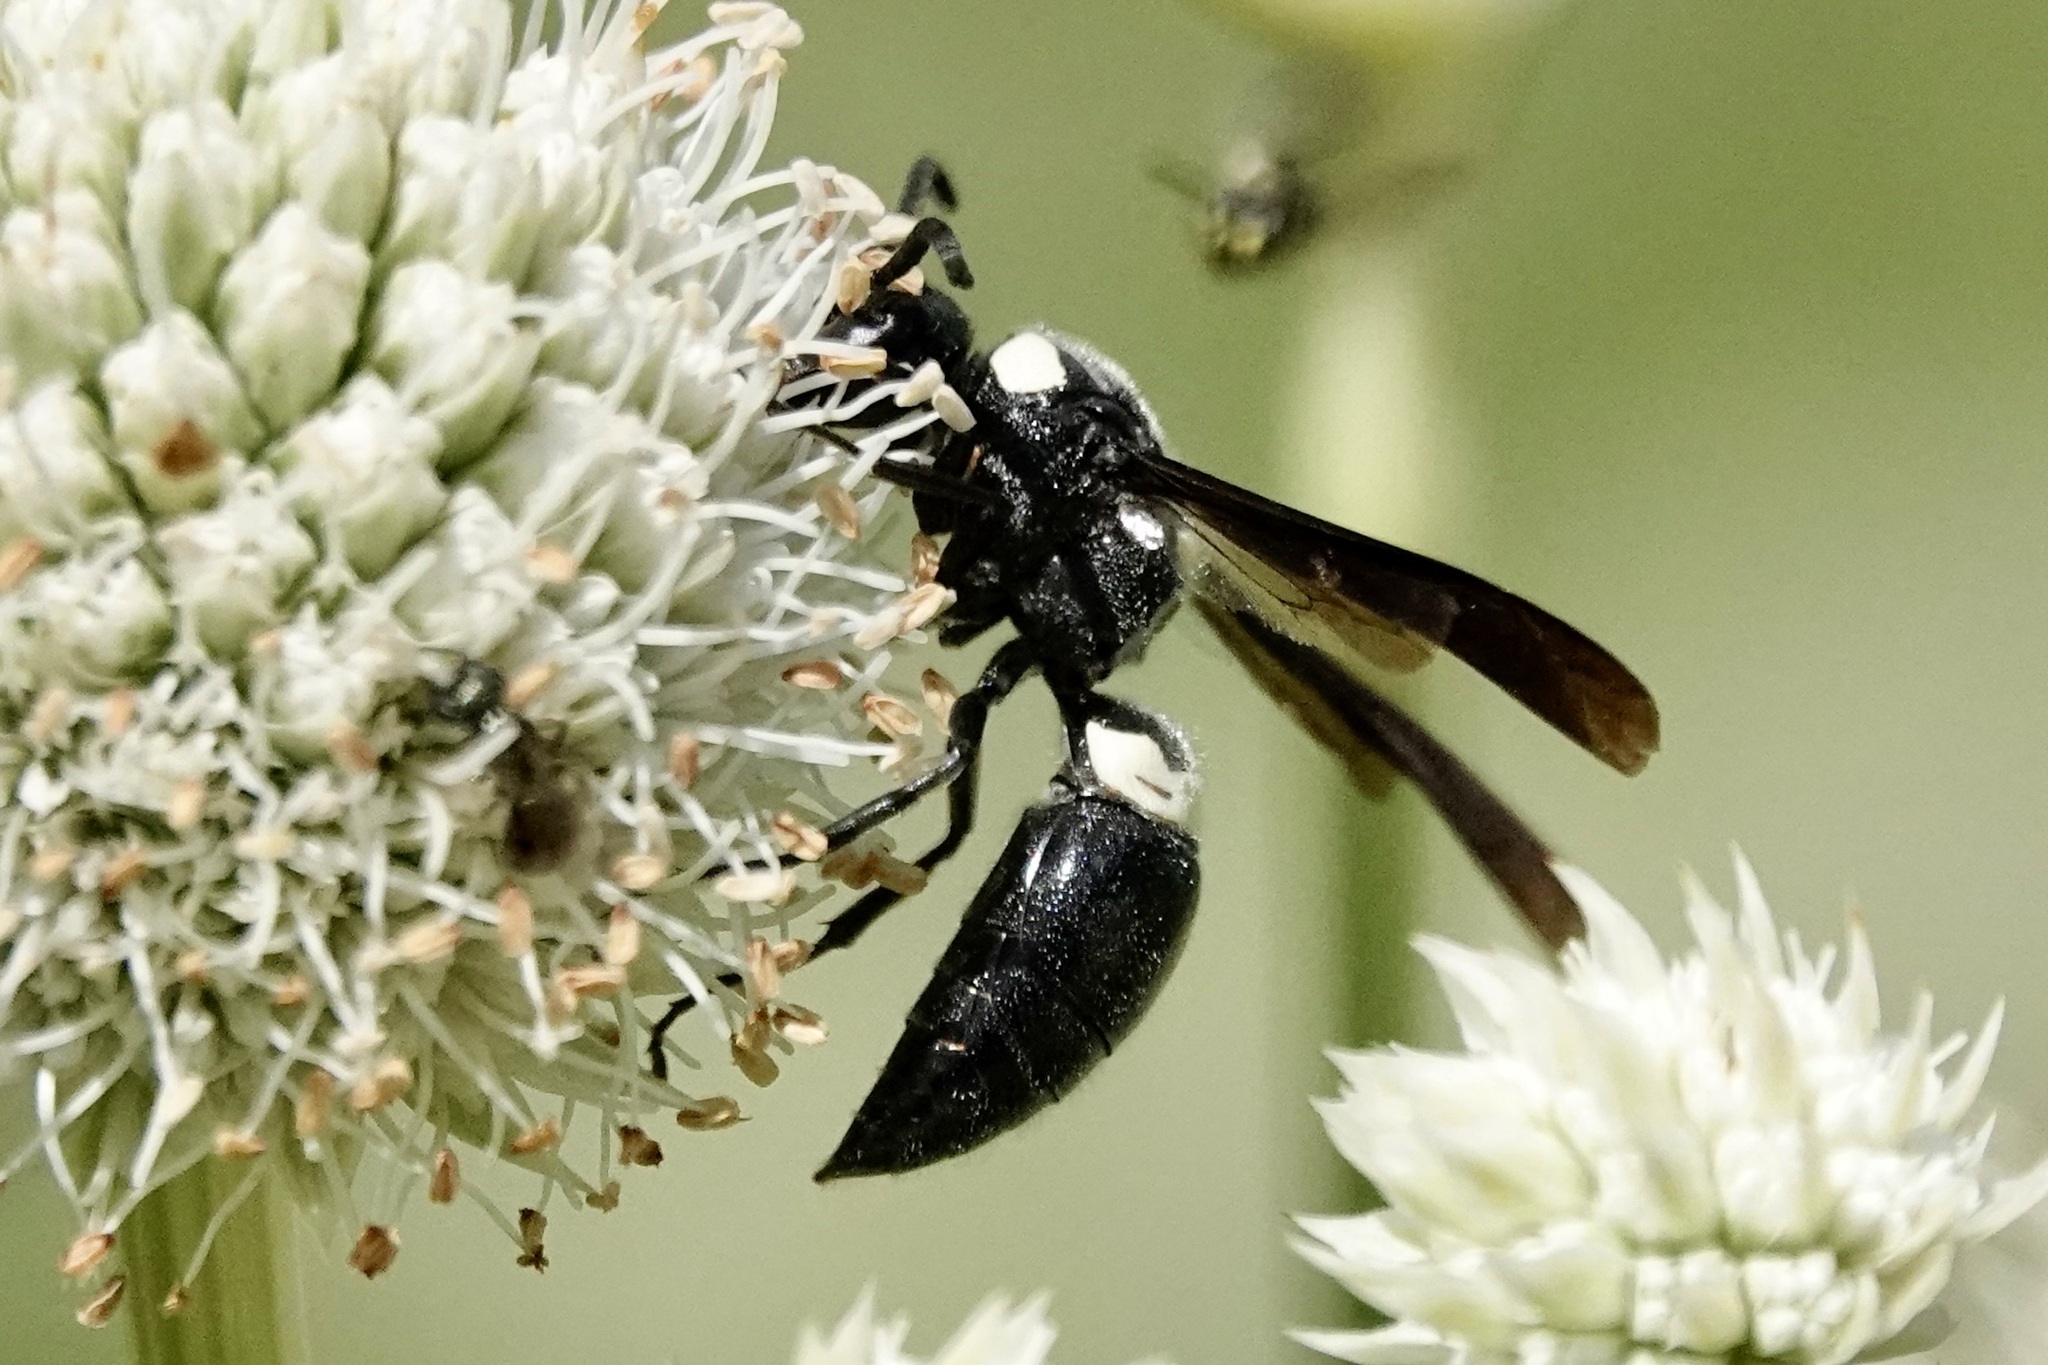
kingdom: Animalia
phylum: Arthropoda
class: Insecta
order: Hymenoptera
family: Eumenidae
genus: Monobia
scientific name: Monobia quadridens
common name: Four-toothed mason wasp
